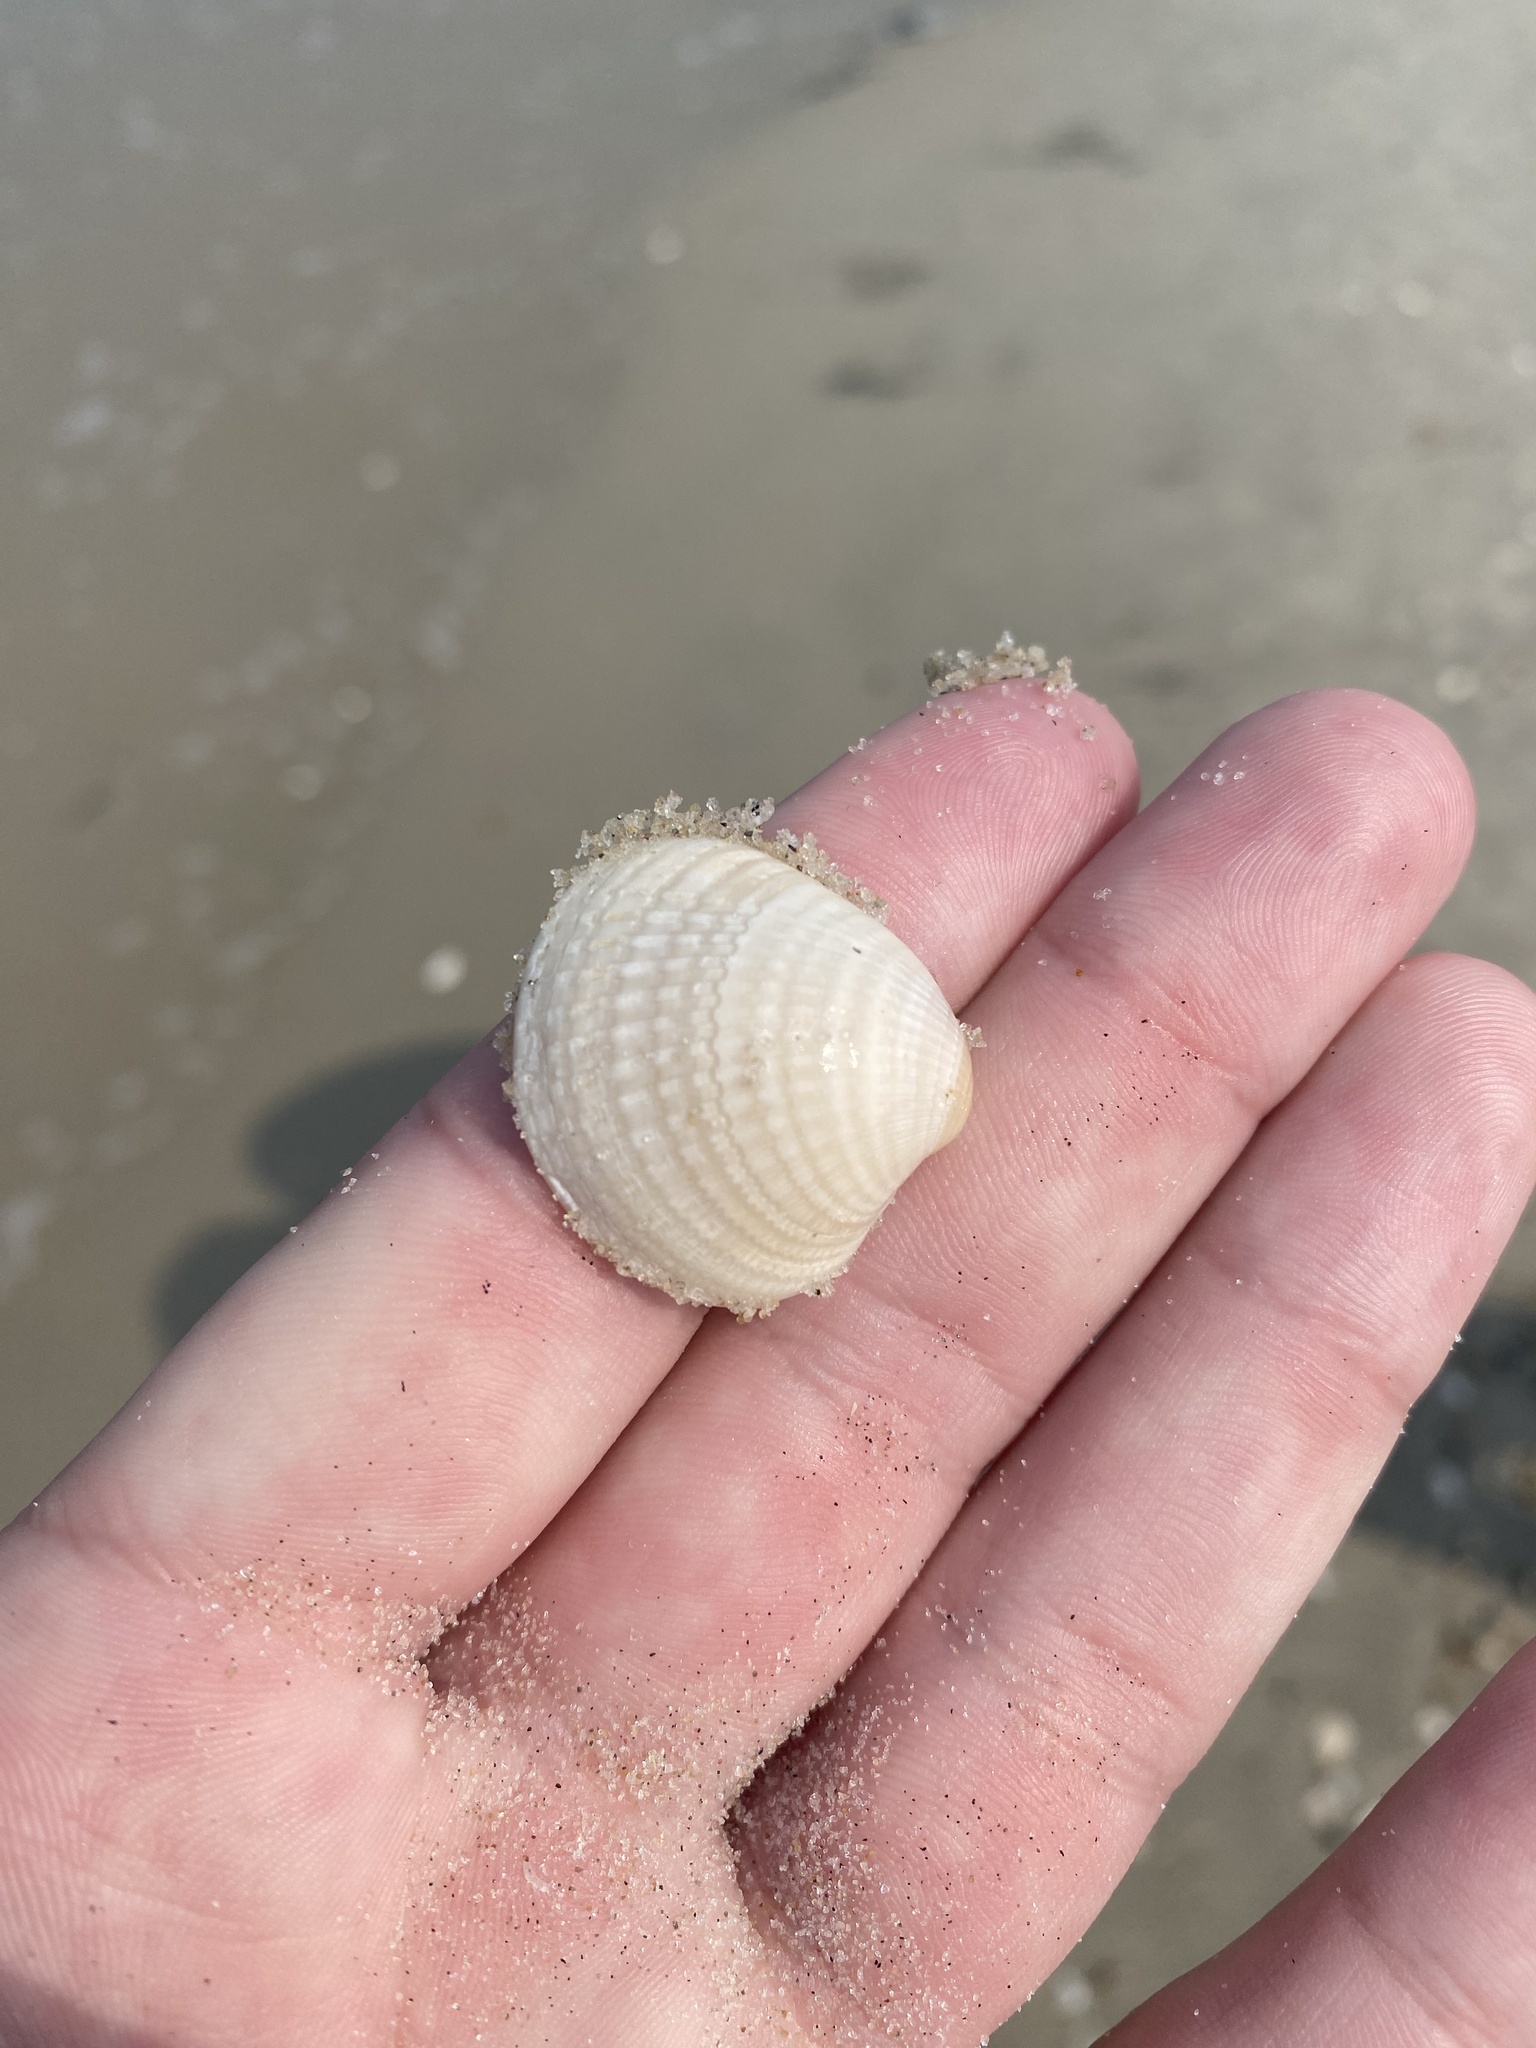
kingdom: Animalia
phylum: Mollusca
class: Bivalvia
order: Venerida
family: Veneridae
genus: Chione
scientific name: Chione elevata
